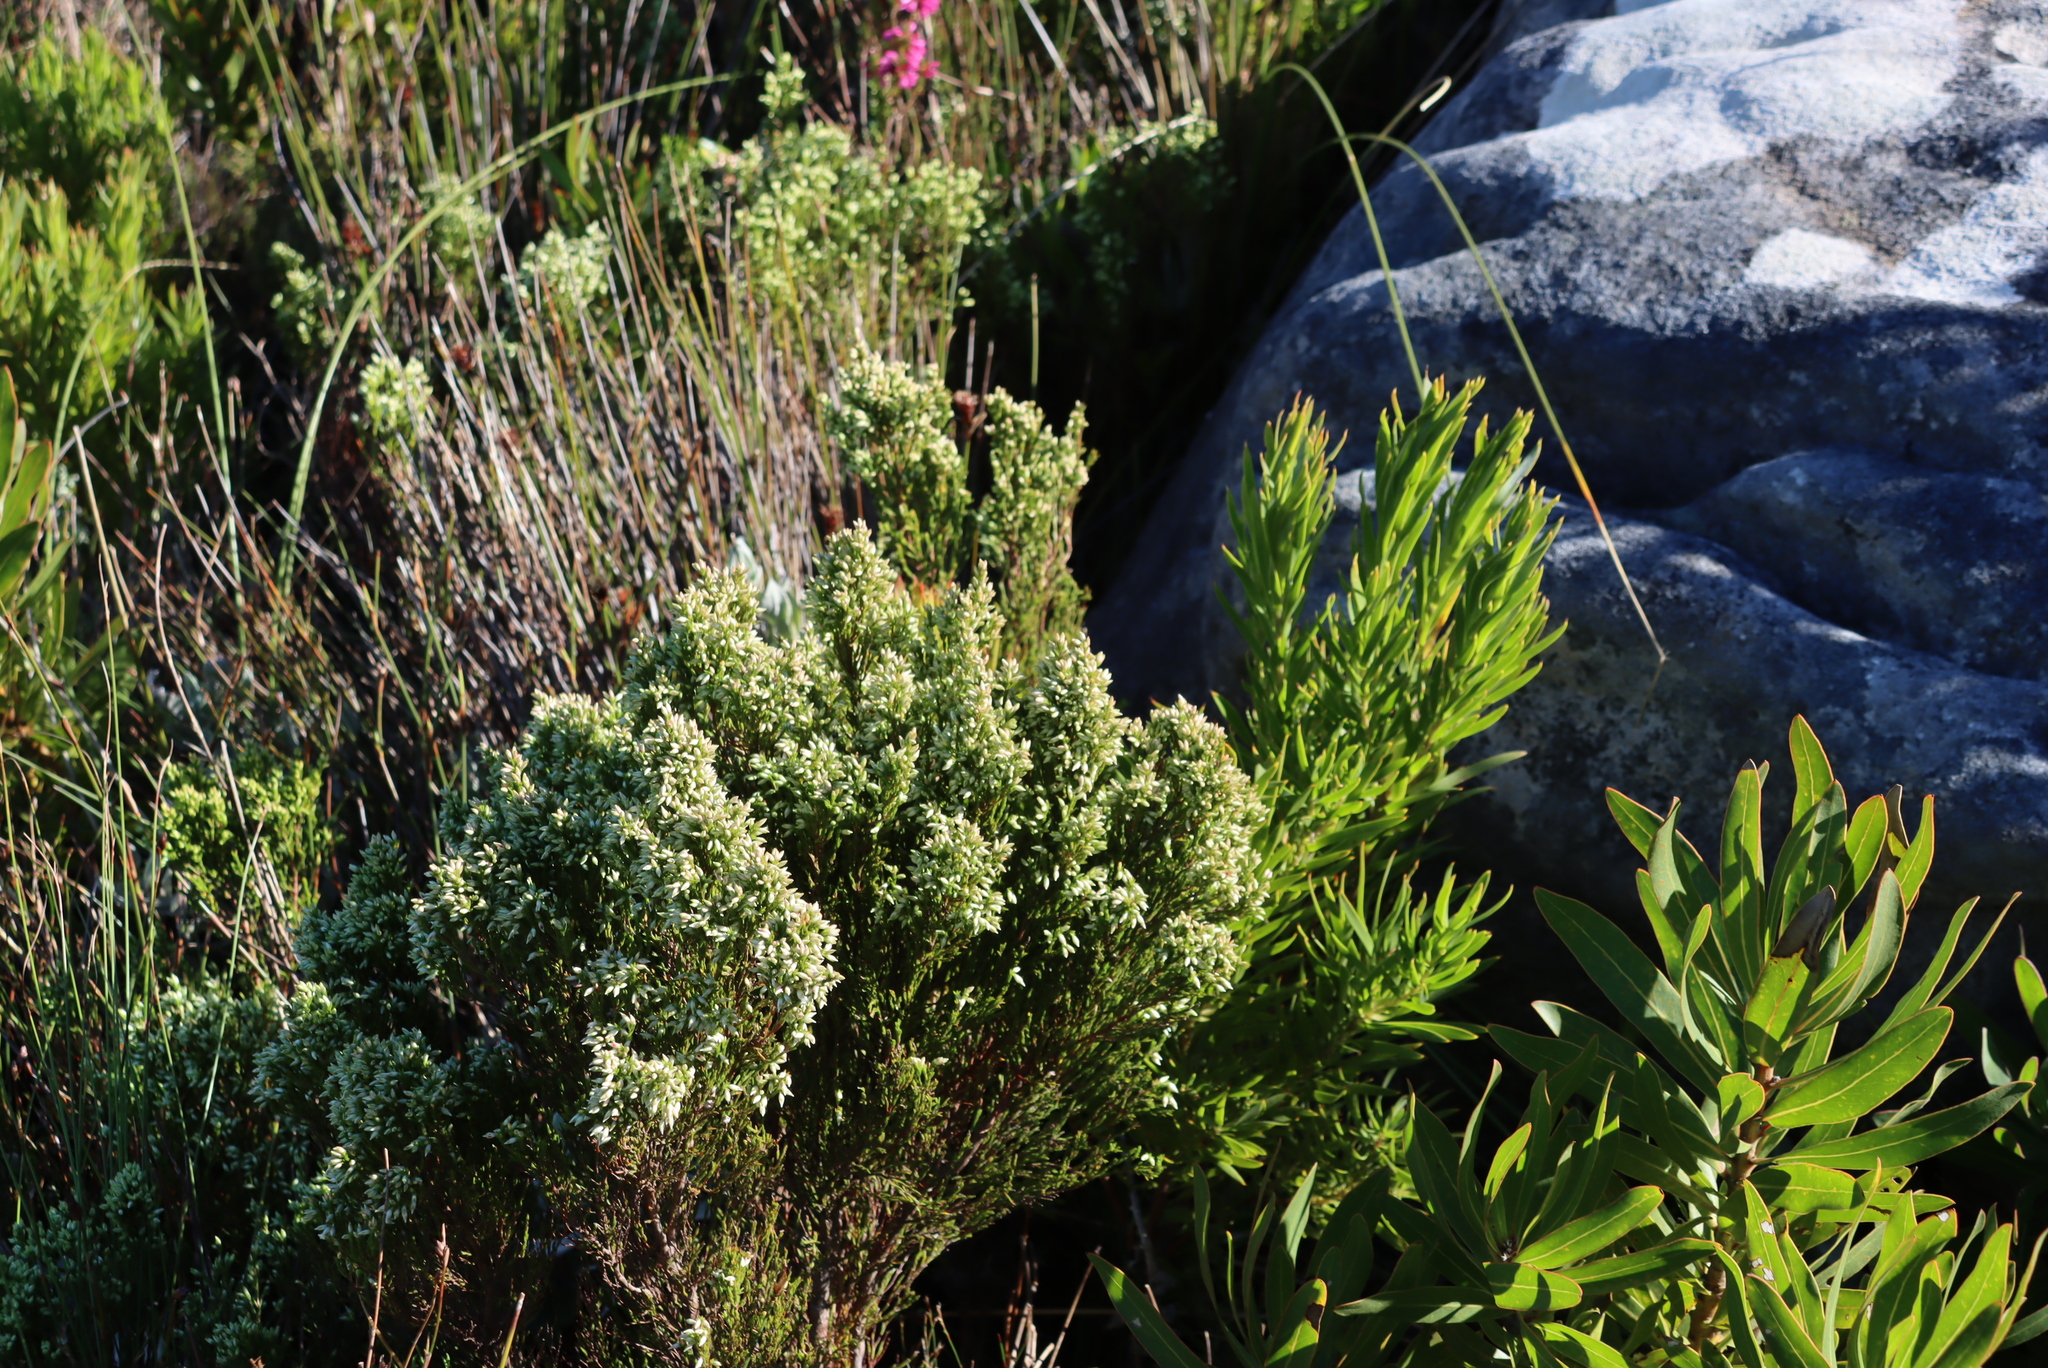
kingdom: Plantae
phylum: Tracheophyta
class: Magnoliopsida
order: Ericales
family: Ericaceae
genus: Erica
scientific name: Erica lutea
